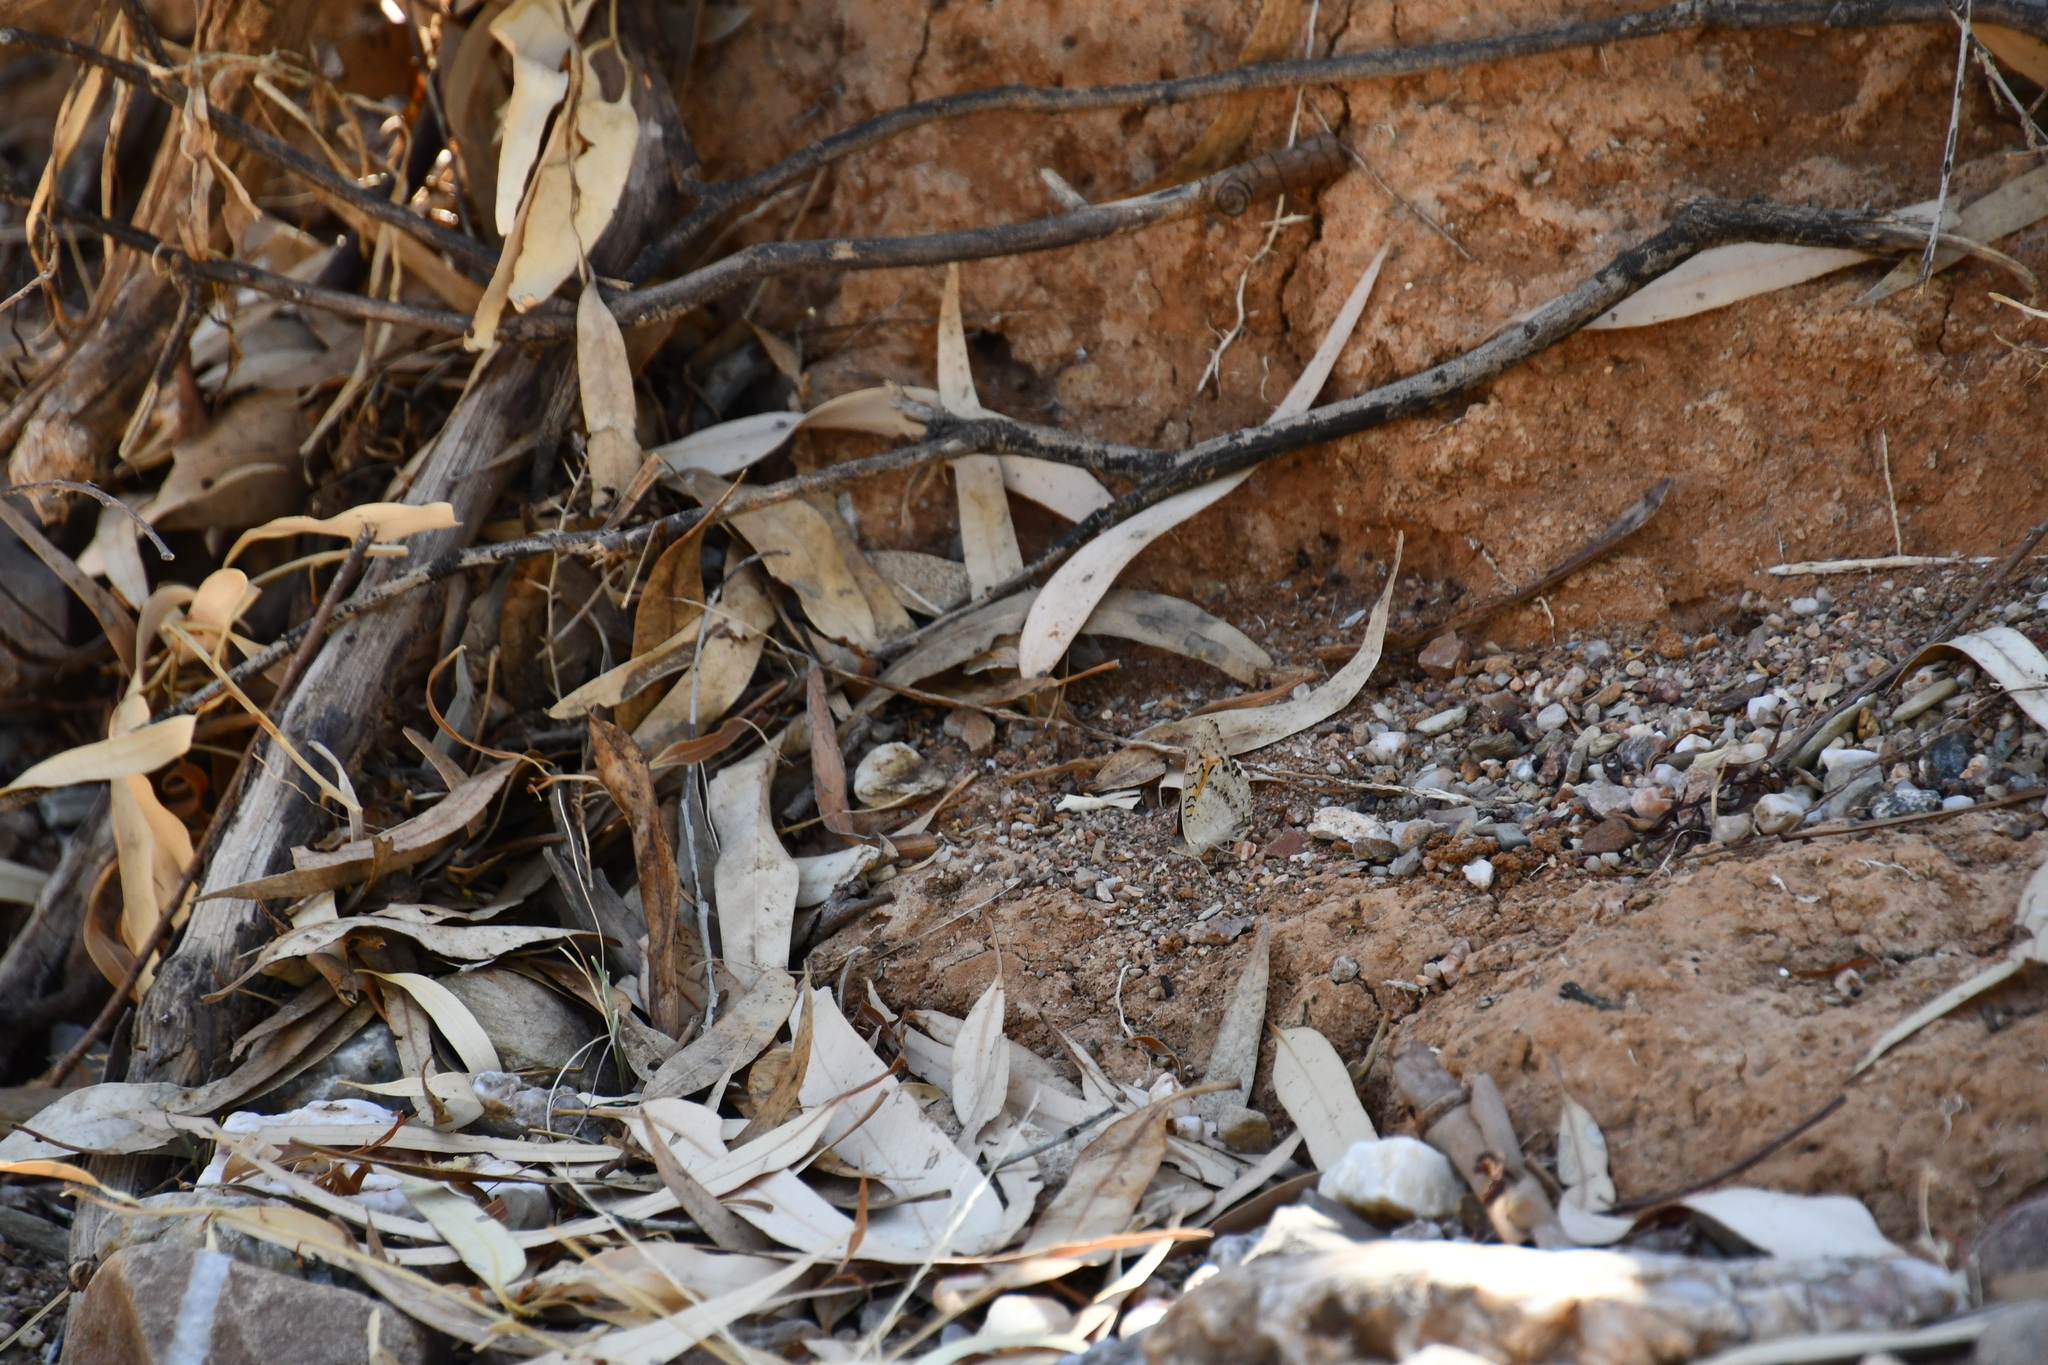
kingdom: Animalia
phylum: Arthropoda
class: Insecta
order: Lepidoptera
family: Nymphalidae
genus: Junonia
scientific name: Junonia villida
